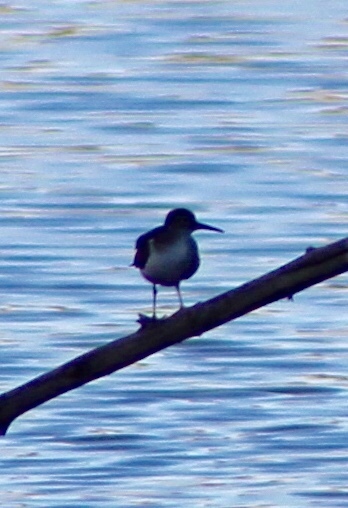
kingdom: Animalia
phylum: Chordata
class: Aves
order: Charadriiformes
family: Scolopacidae
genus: Actitis
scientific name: Actitis macularius
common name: Spotted sandpiper
